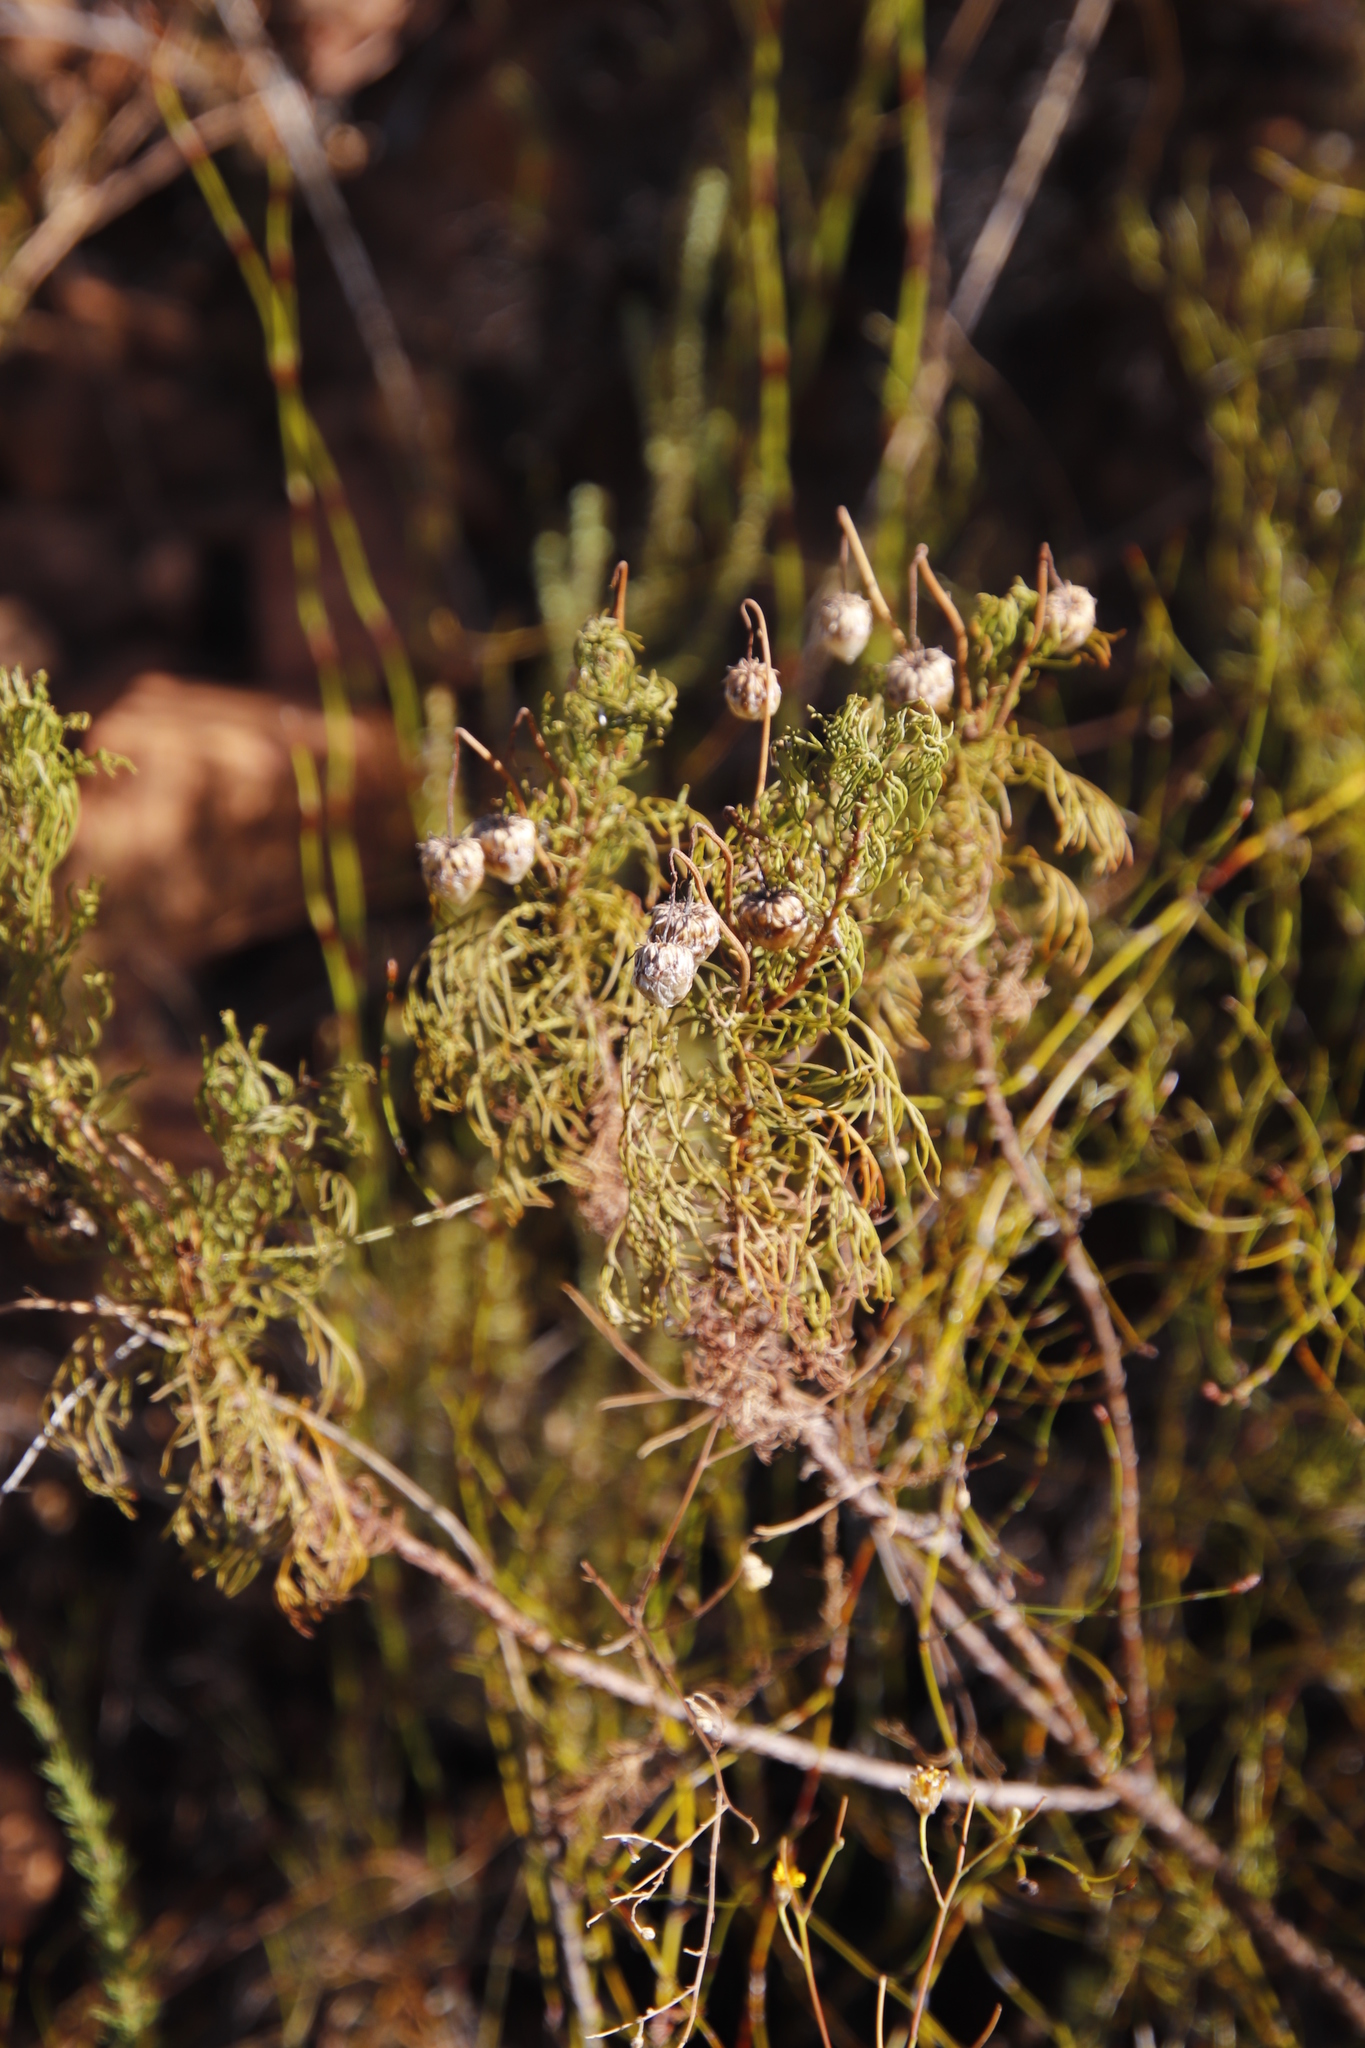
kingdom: Plantae
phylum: Tracheophyta
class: Magnoliopsida
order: Asterales
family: Asteraceae
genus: Euryops
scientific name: Euryops abrotanifolius
